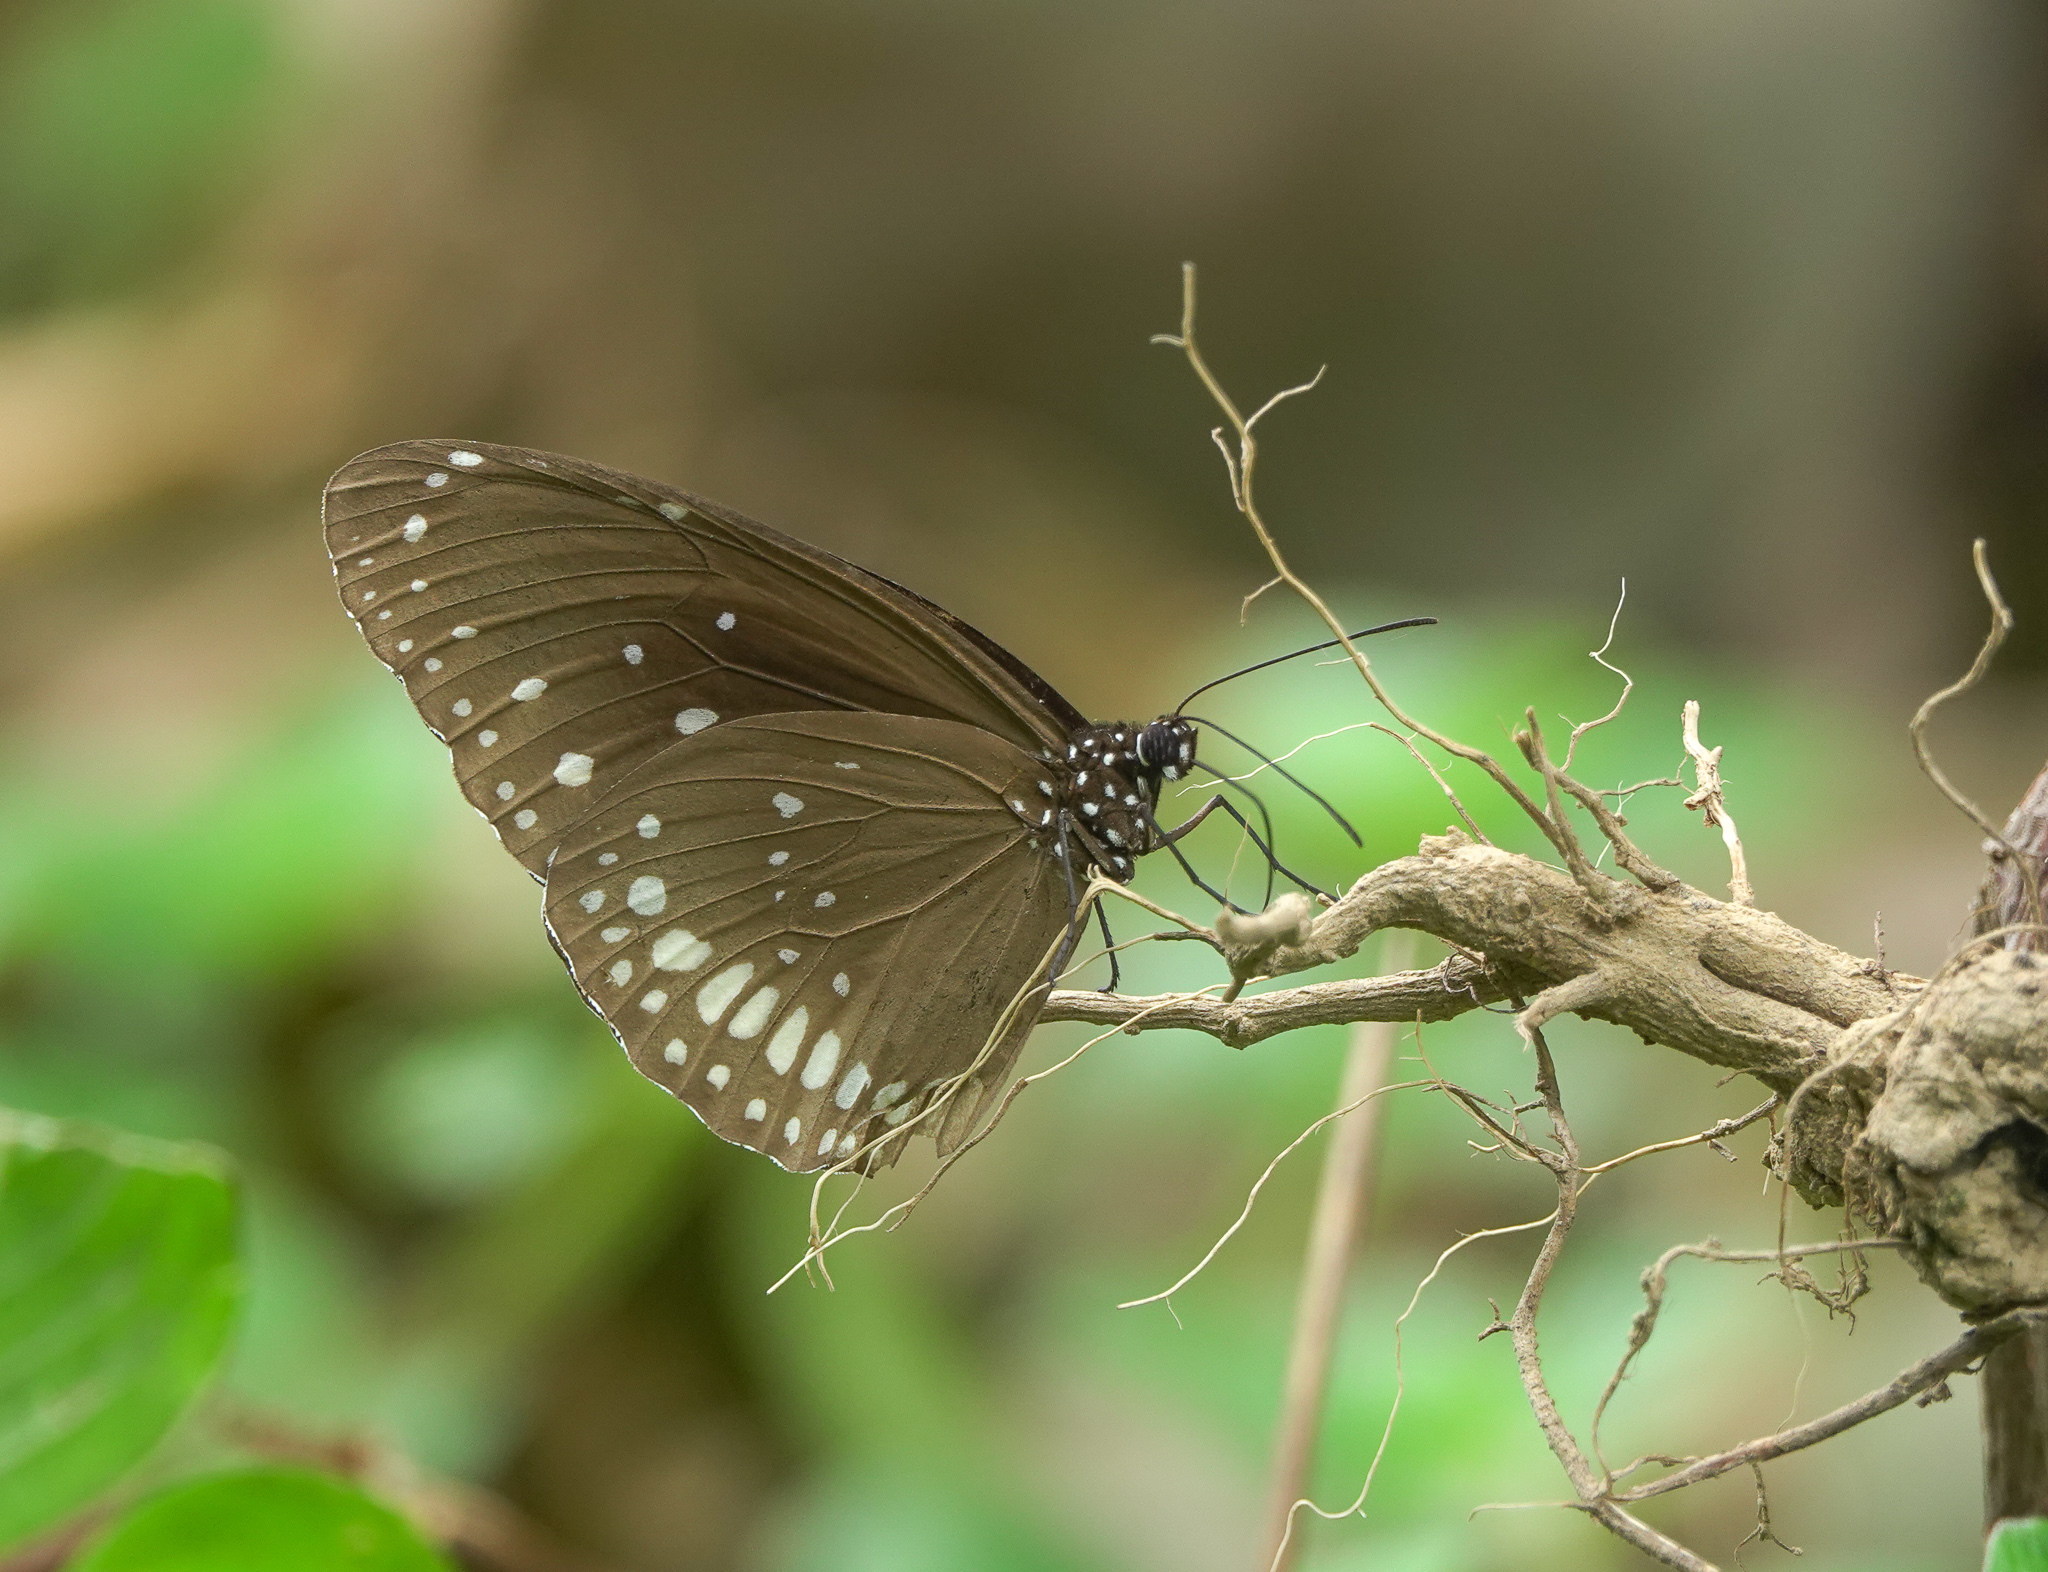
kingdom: Animalia
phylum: Arthropoda
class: Insecta
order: Lepidoptera
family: Nymphalidae
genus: Euploea
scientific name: Euploea core
